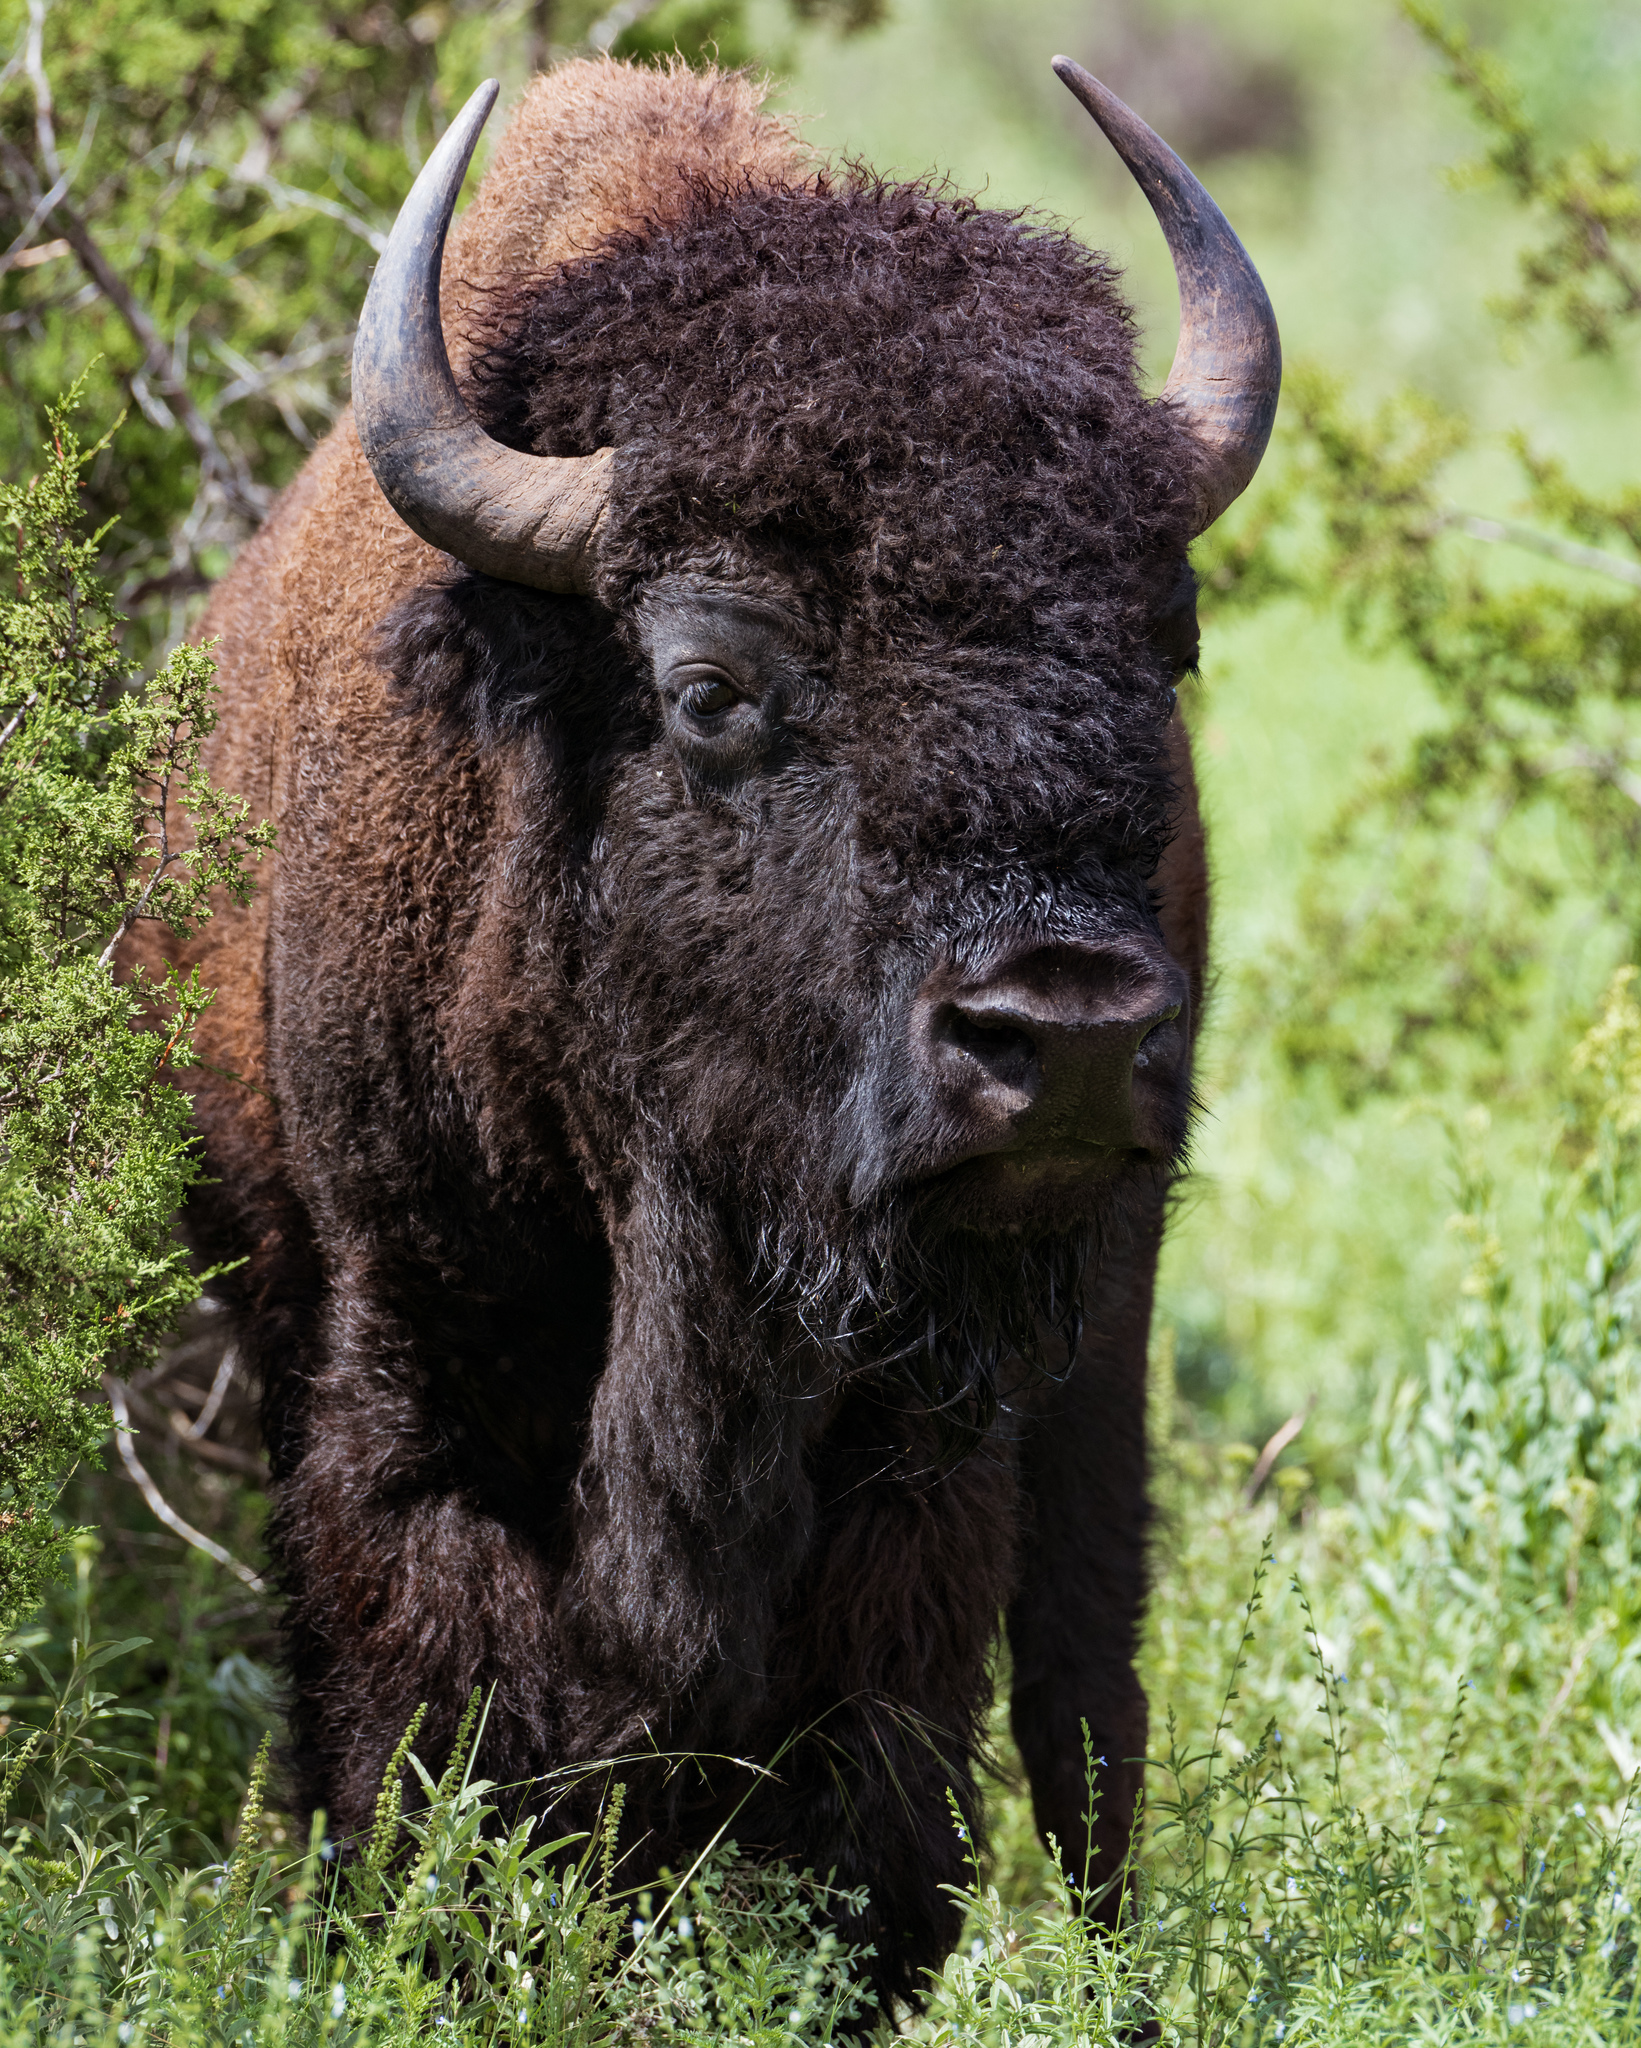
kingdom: Animalia
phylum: Chordata
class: Mammalia
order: Artiodactyla
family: Bovidae
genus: Bison
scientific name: Bison bison
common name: American bison
